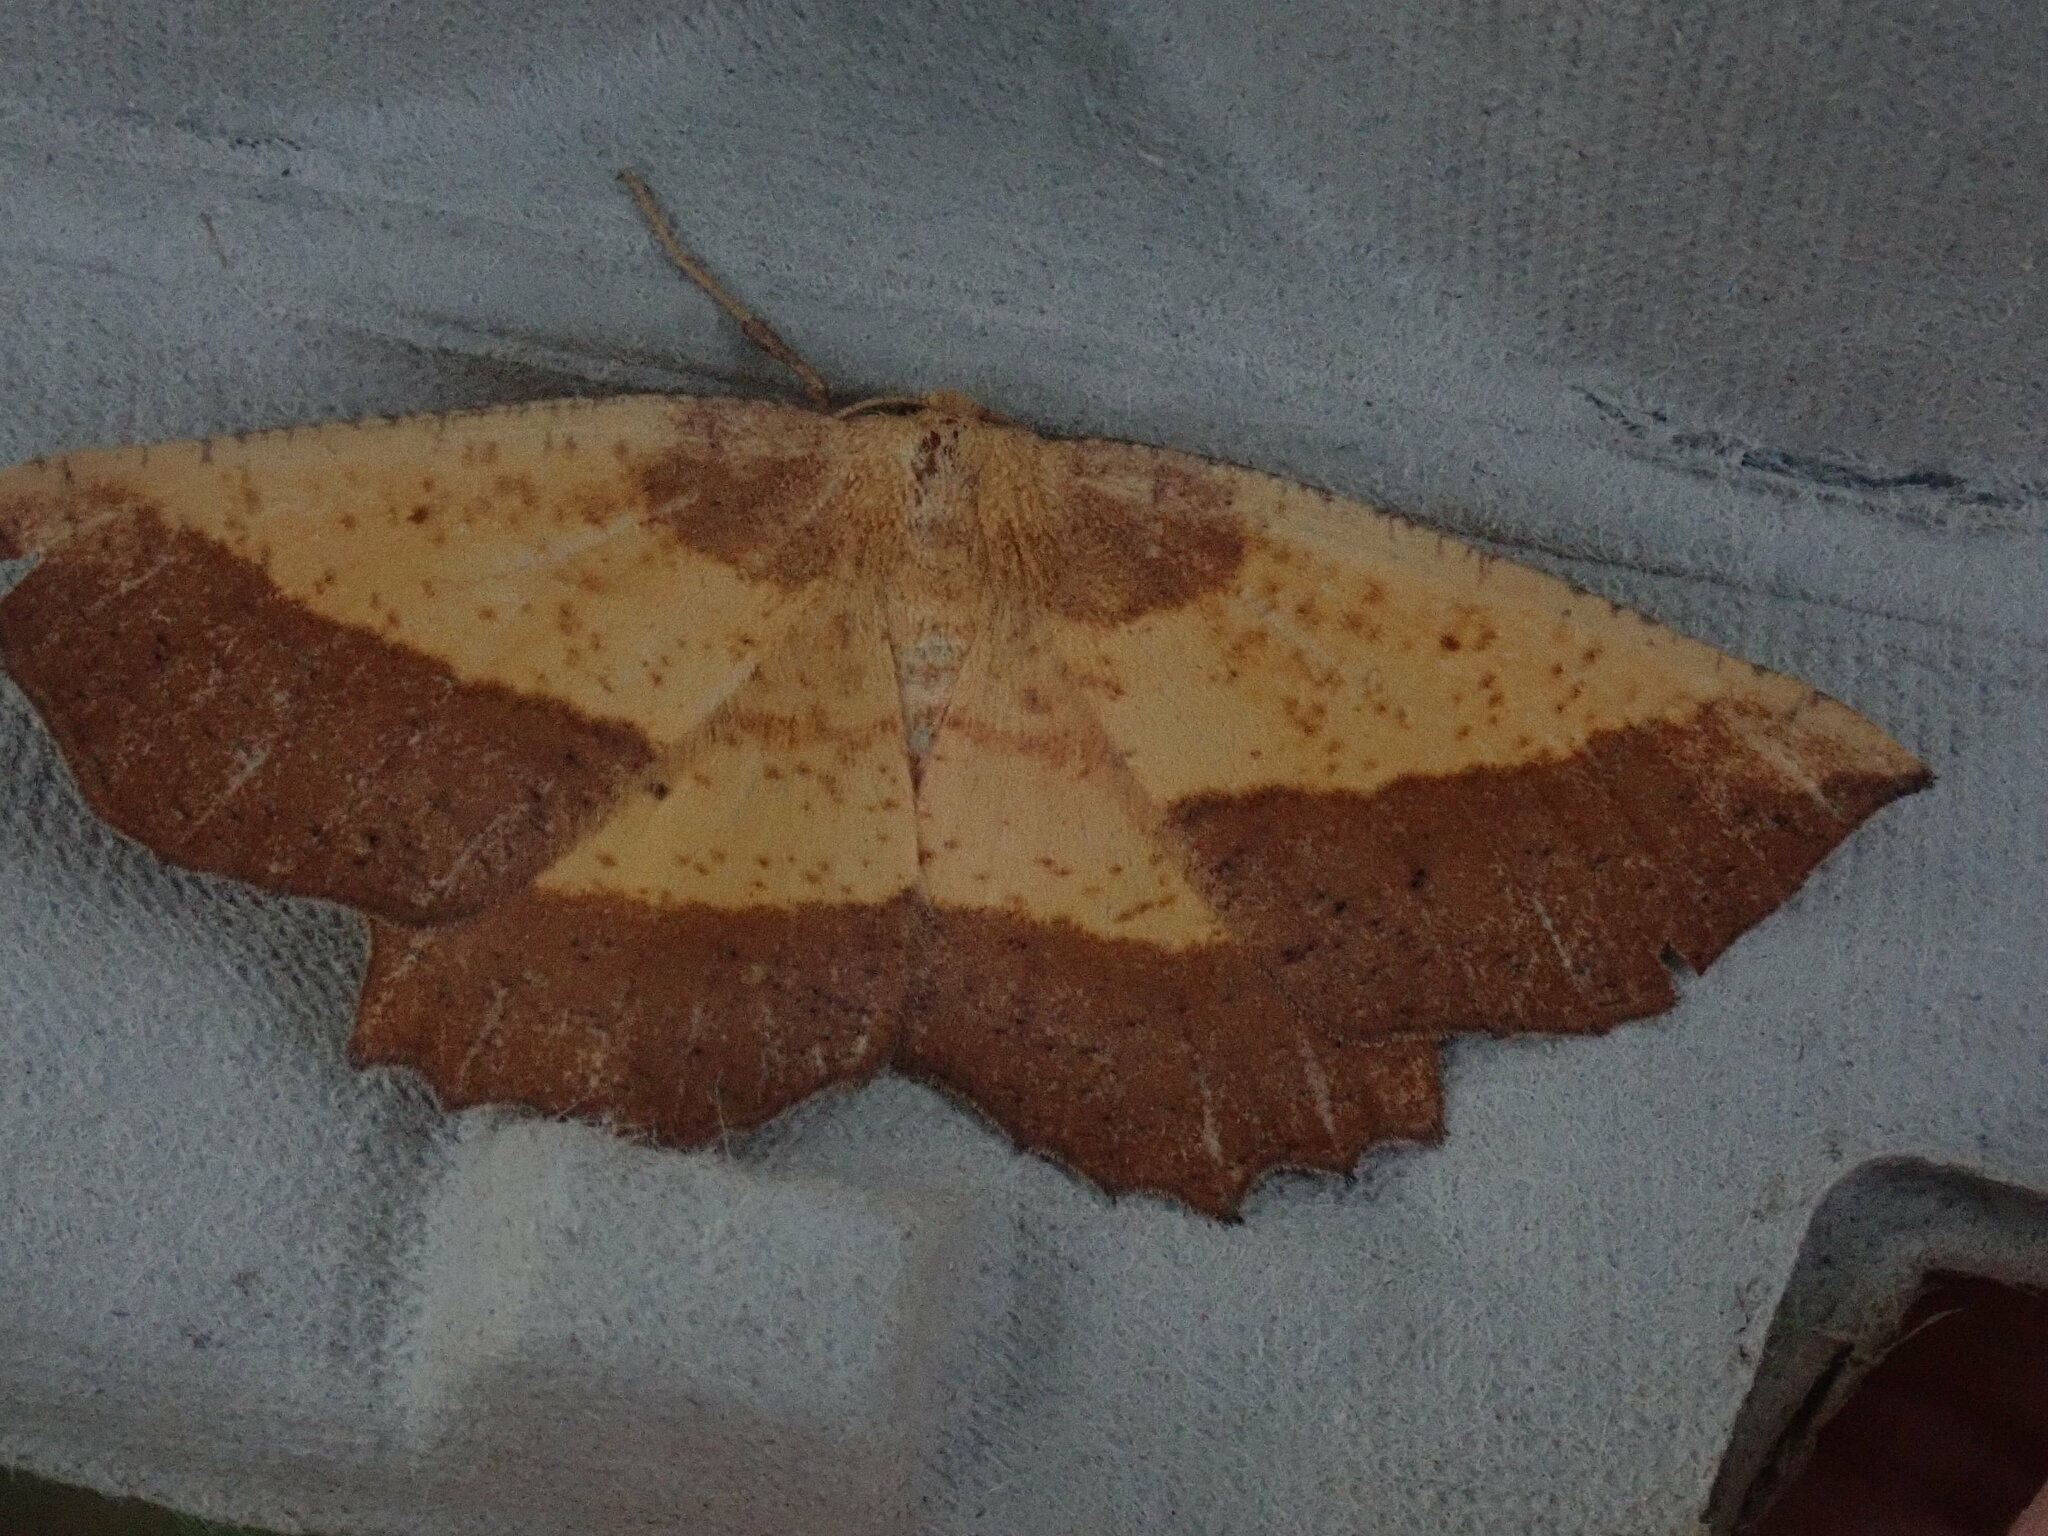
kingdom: Animalia
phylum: Arthropoda
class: Insecta
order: Lepidoptera
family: Geometridae
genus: Euchlaena
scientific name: Euchlaena serrata
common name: Saw wing
